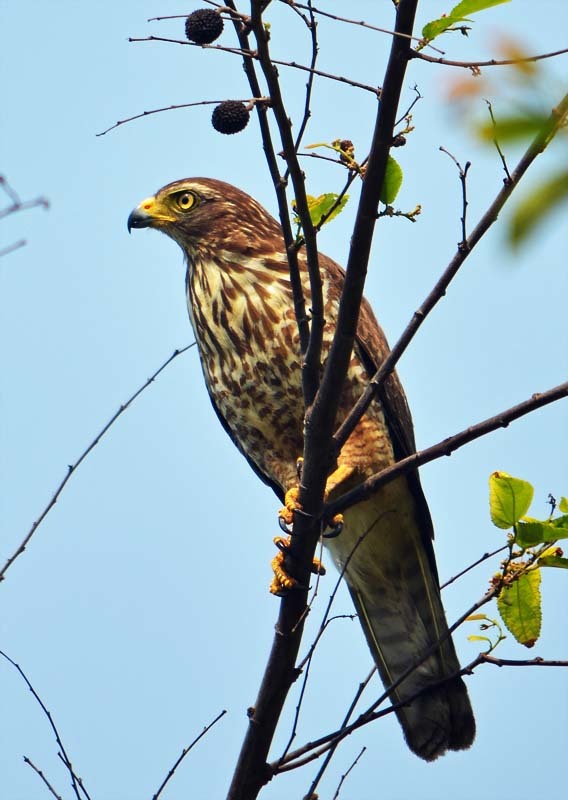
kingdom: Animalia
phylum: Chordata
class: Aves
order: Accipitriformes
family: Accipitridae
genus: Rupornis
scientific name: Rupornis magnirostris
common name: Roadside hawk
